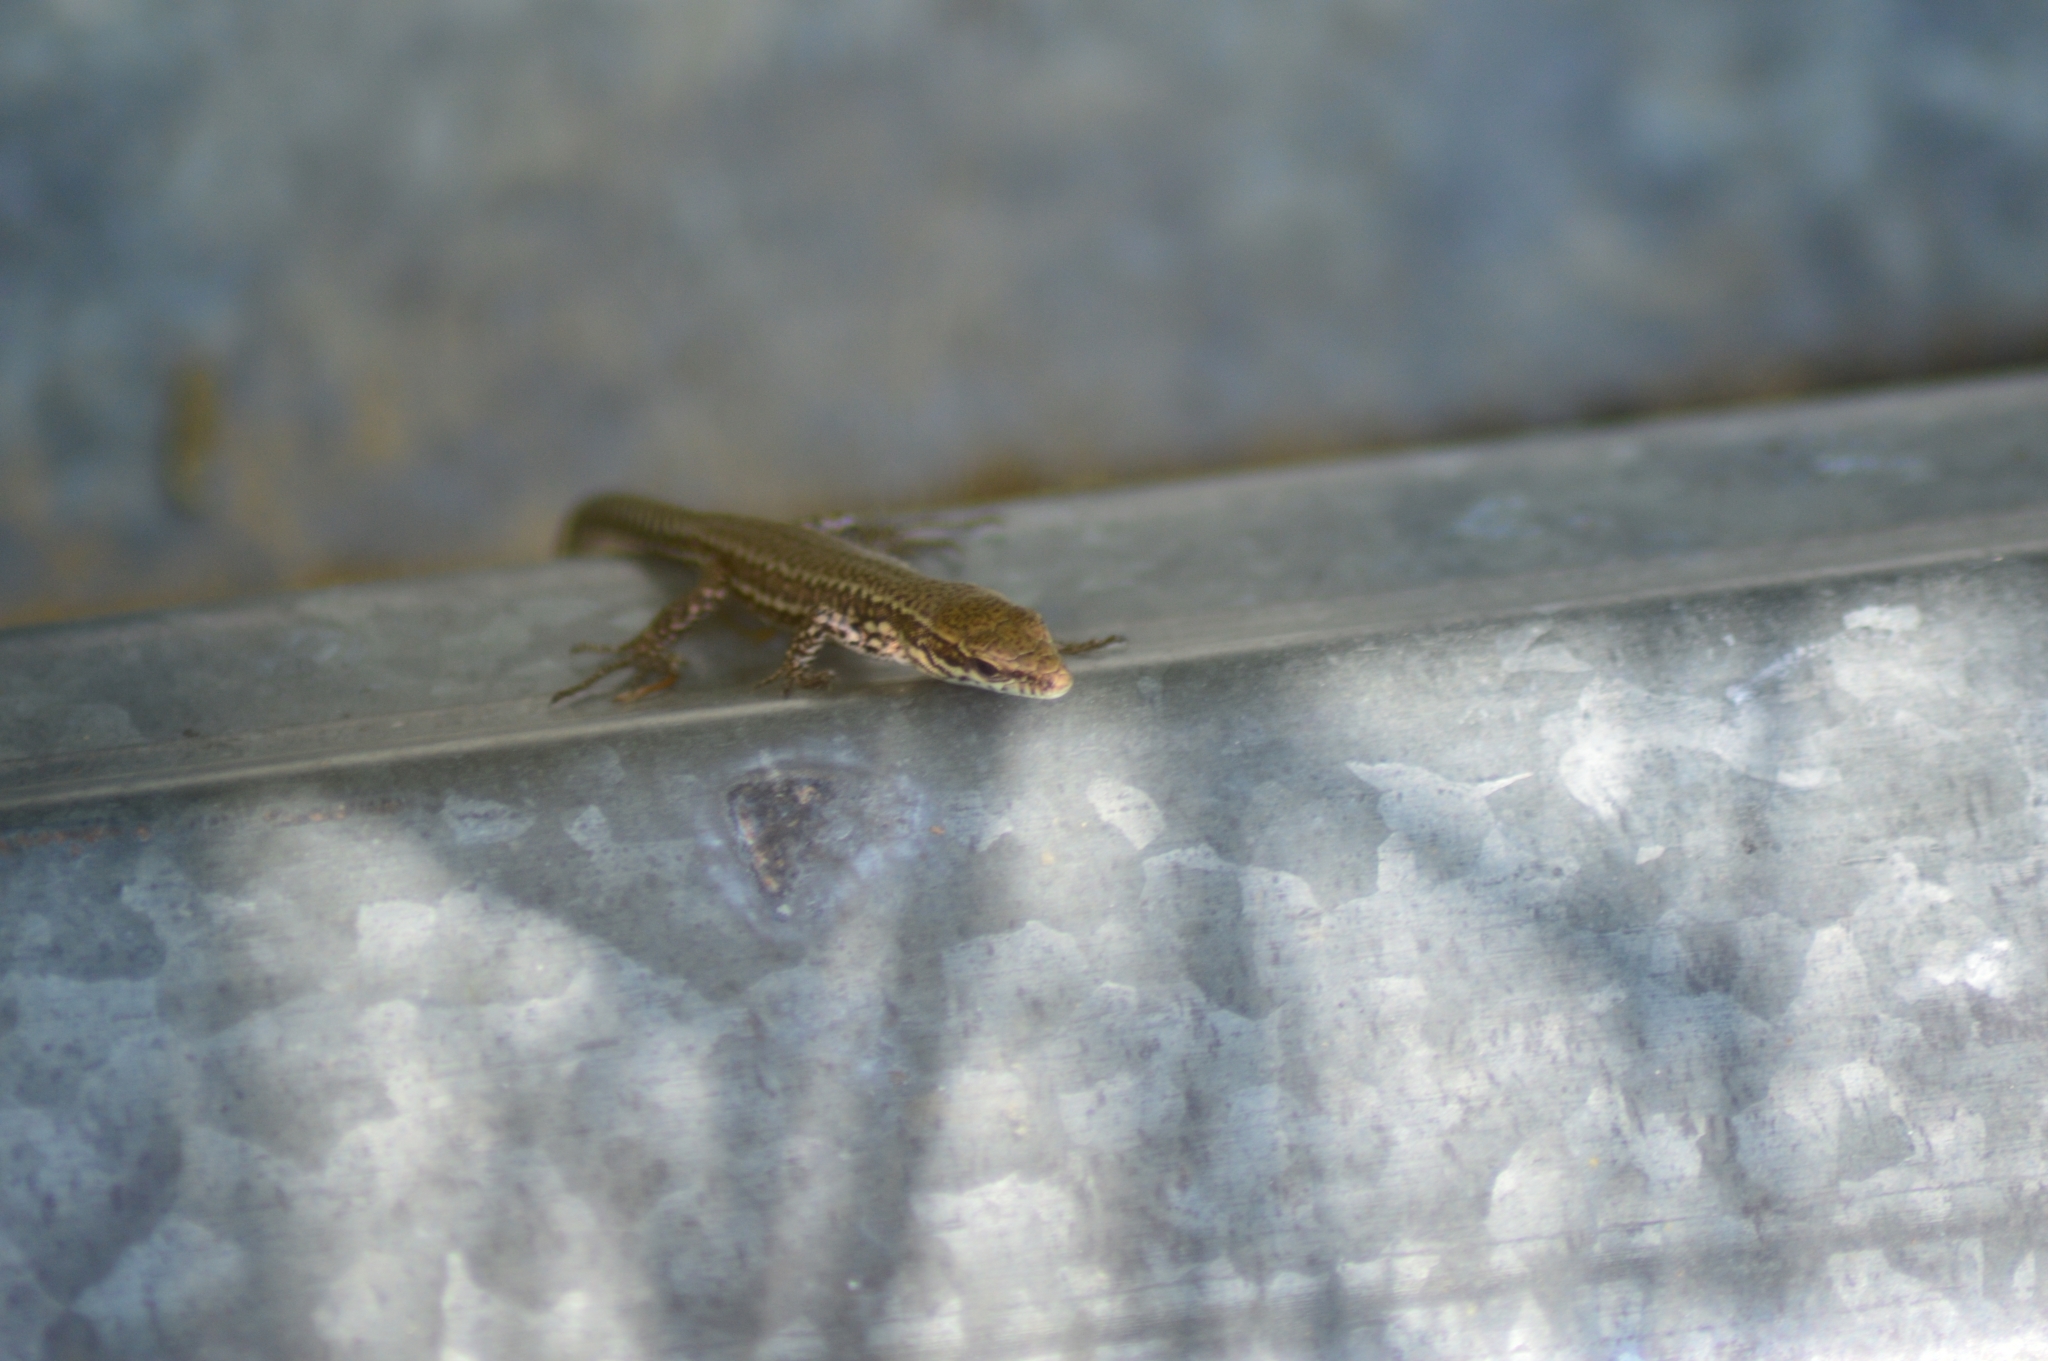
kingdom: Animalia
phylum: Chordata
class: Squamata
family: Lacertidae
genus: Podarcis
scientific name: Podarcis muralis
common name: Common wall lizard
